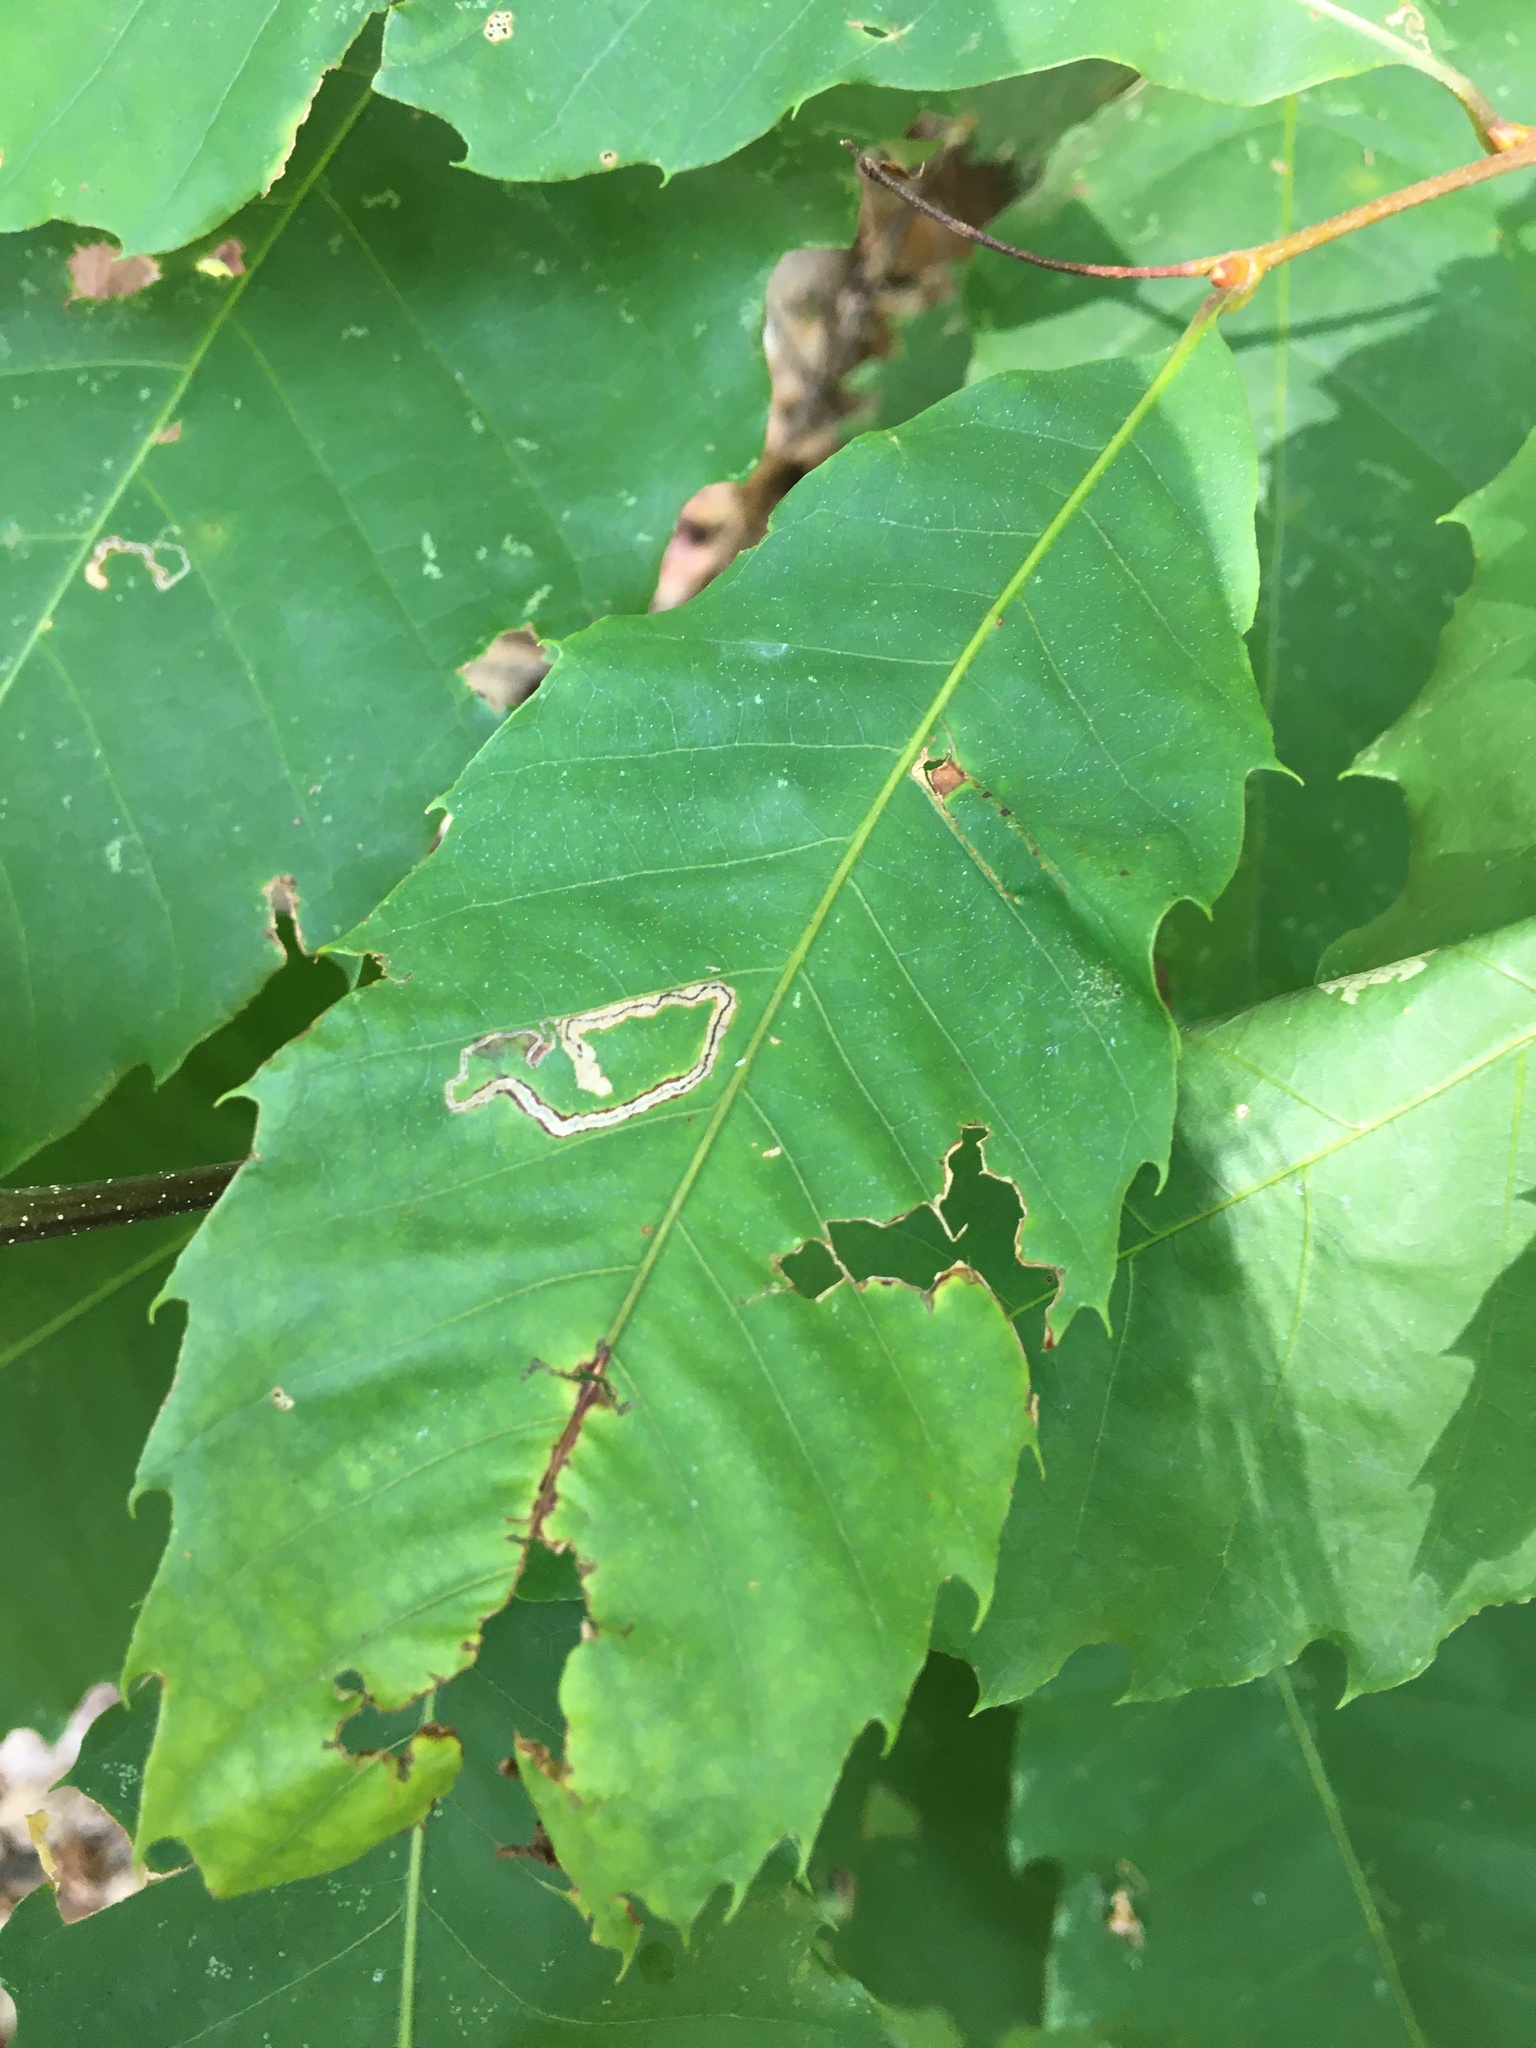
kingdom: Animalia
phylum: Arthropoda
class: Insecta
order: Lepidoptera
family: Nepticulidae
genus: Stigmella
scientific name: Stigmella
